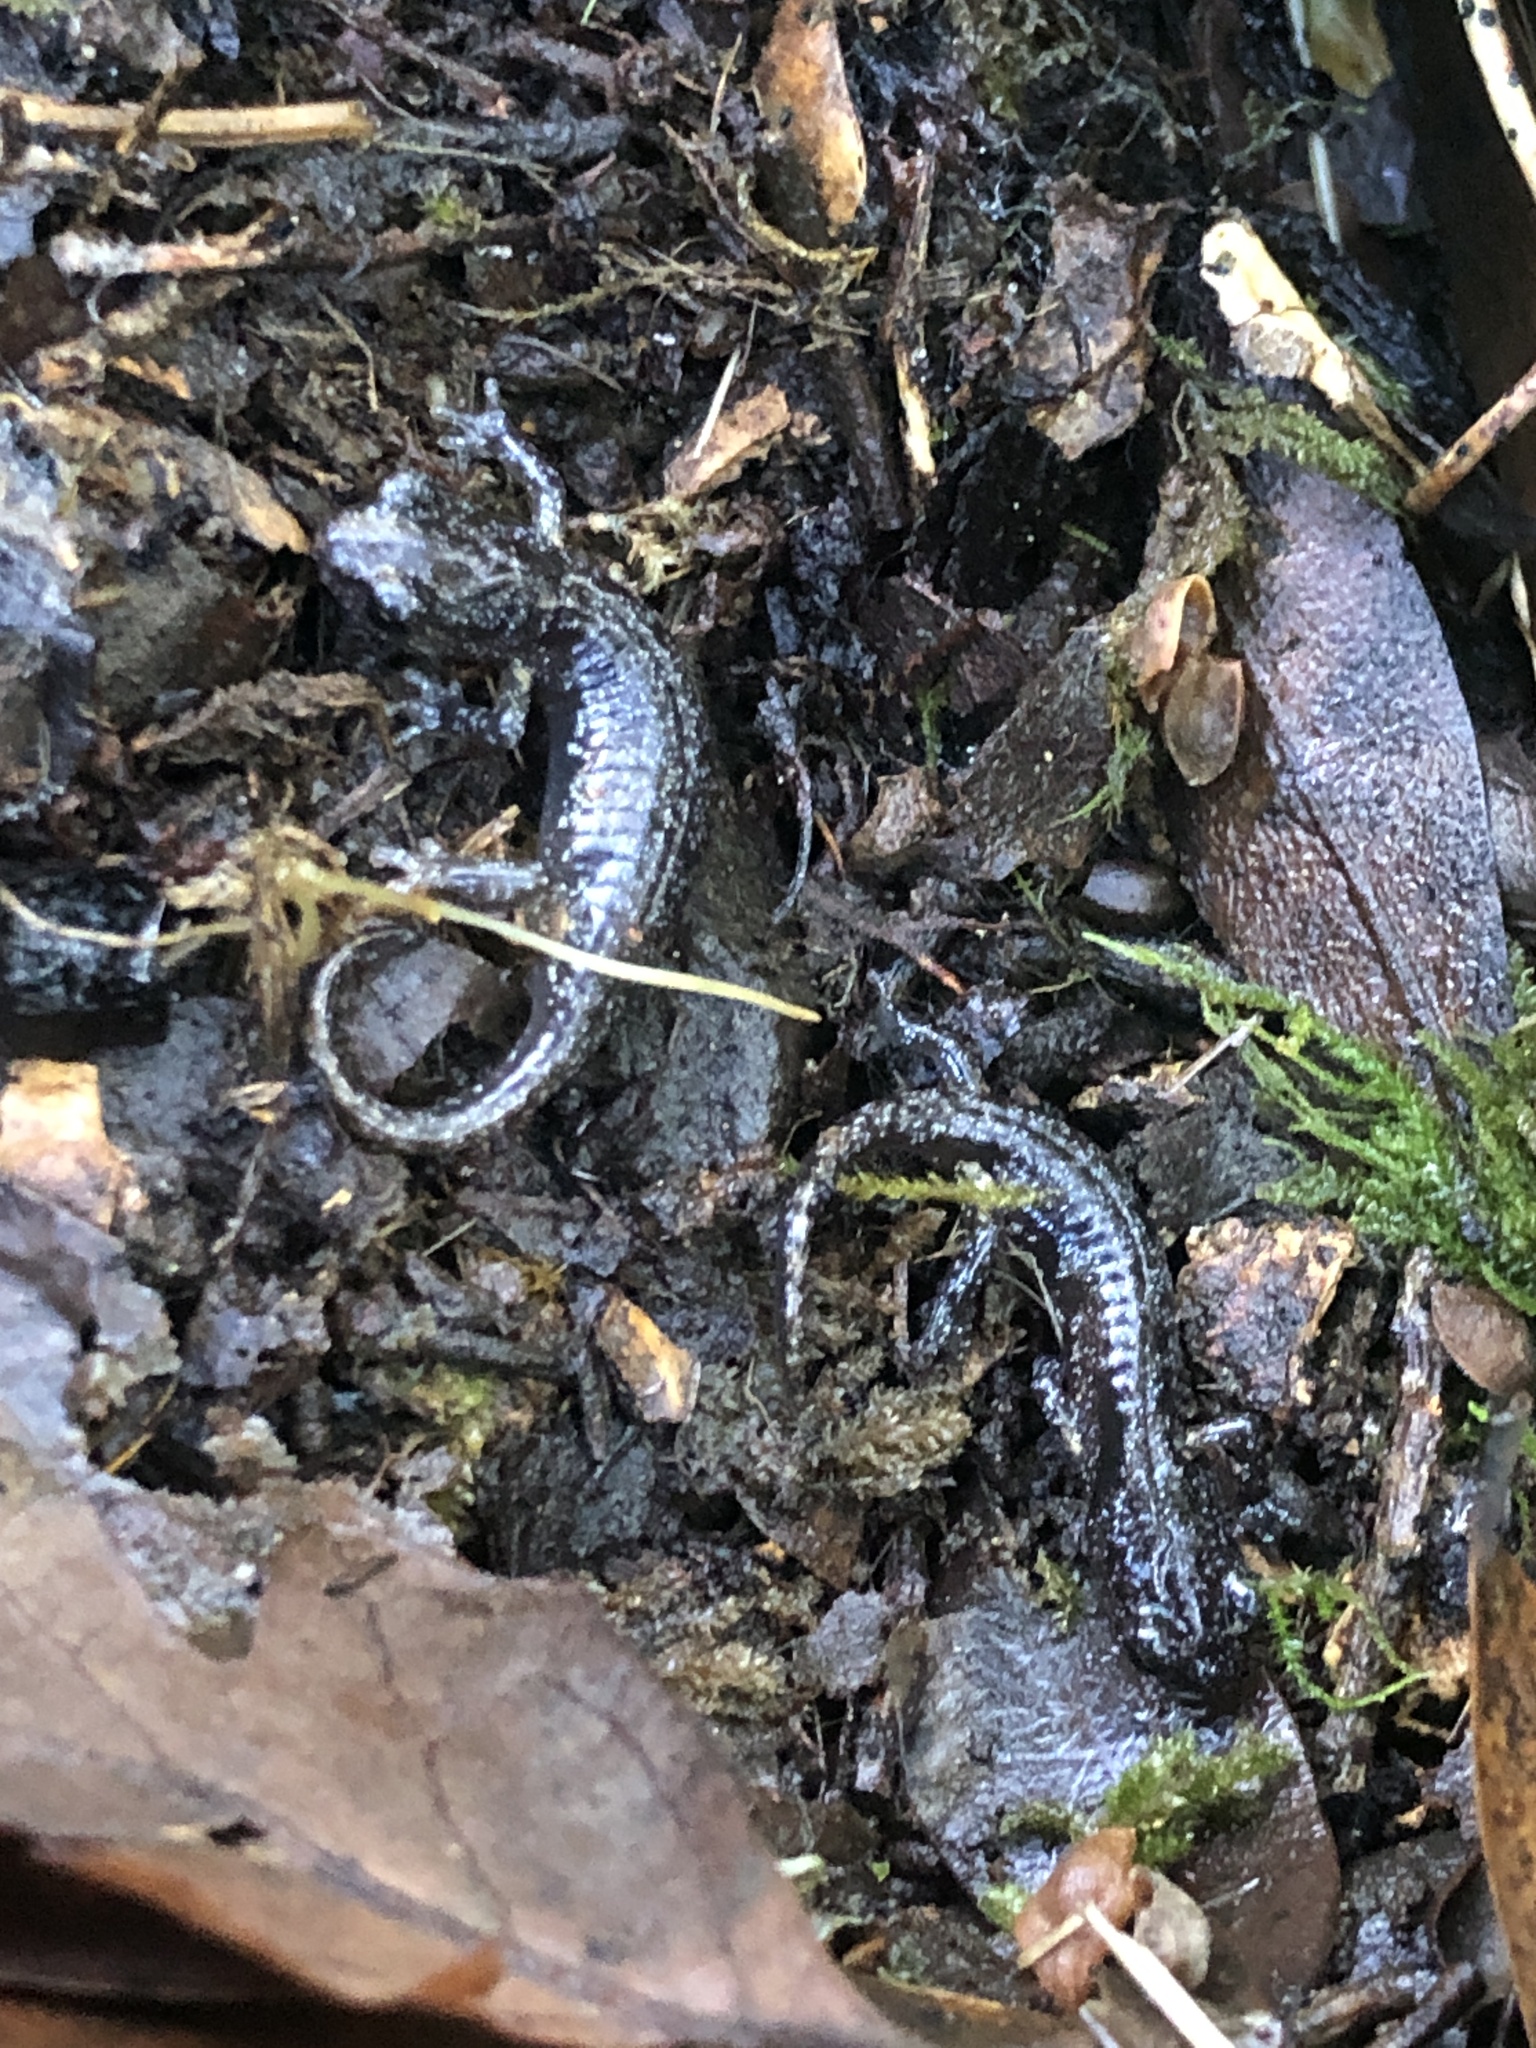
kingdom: Animalia
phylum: Chordata
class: Amphibia
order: Caudata
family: Plethodontidae
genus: Aneides
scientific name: Aneides lugubris
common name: Arboreal salamander
